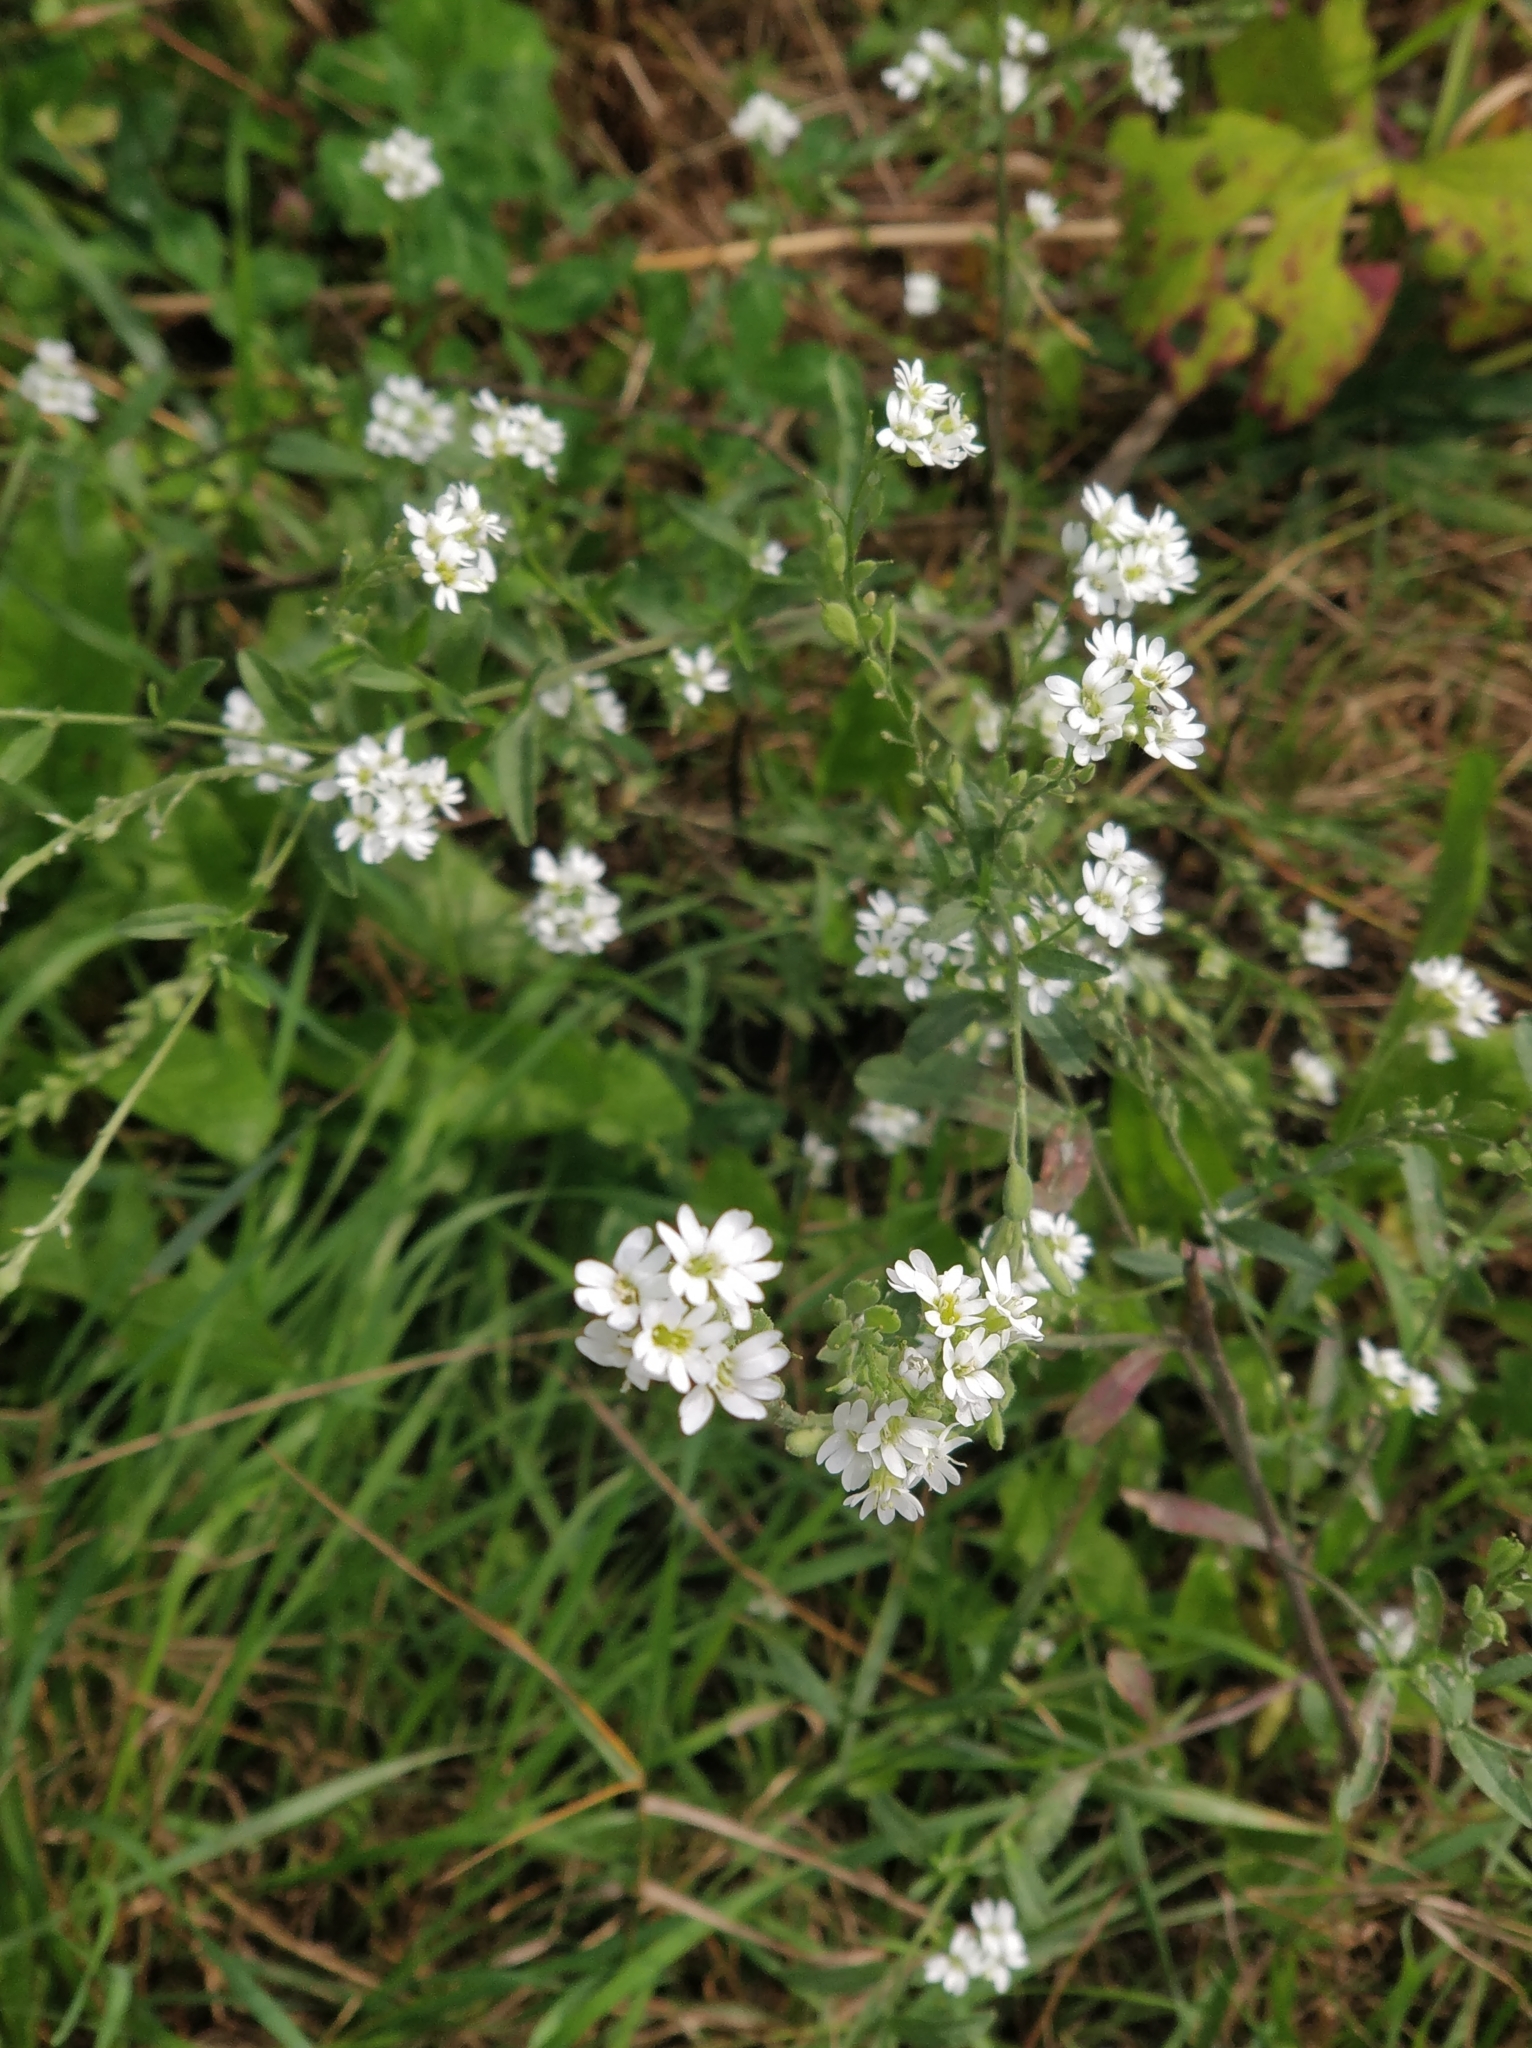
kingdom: Plantae
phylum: Tracheophyta
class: Magnoliopsida
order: Brassicales
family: Brassicaceae
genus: Berteroa
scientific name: Berteroa incana
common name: Hoary alison
